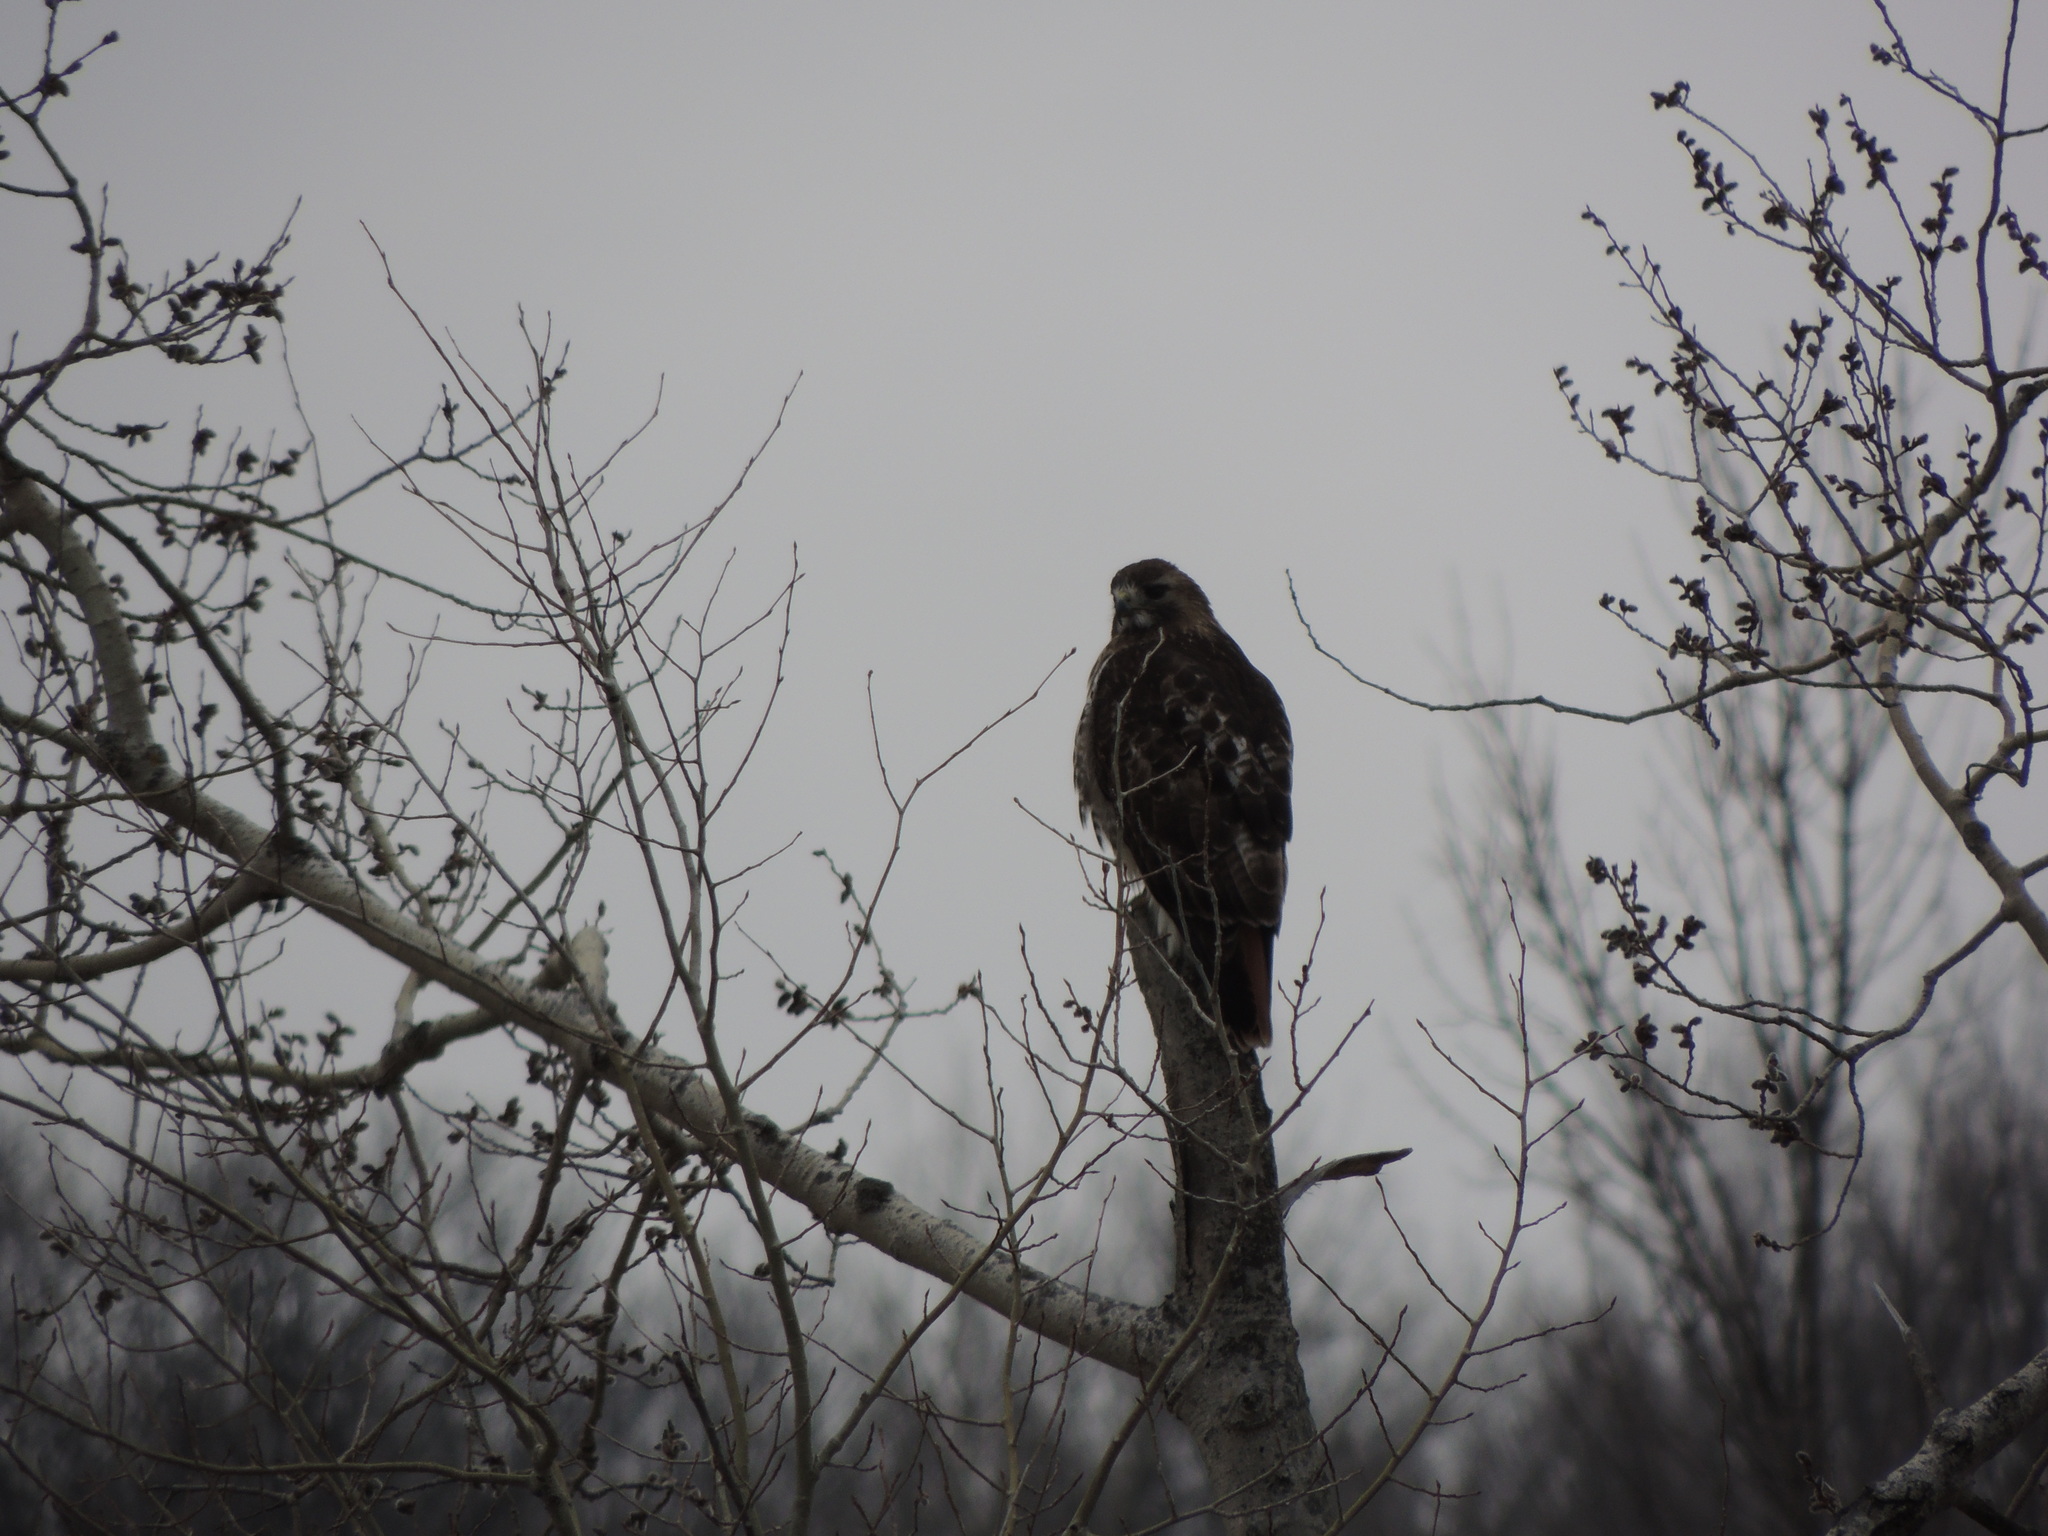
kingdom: Animalia
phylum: Chordata
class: Aves
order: Accipitriformes
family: Accipitridae
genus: Buteo
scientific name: Buteo jamaicensis
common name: Red-tailed hawk
